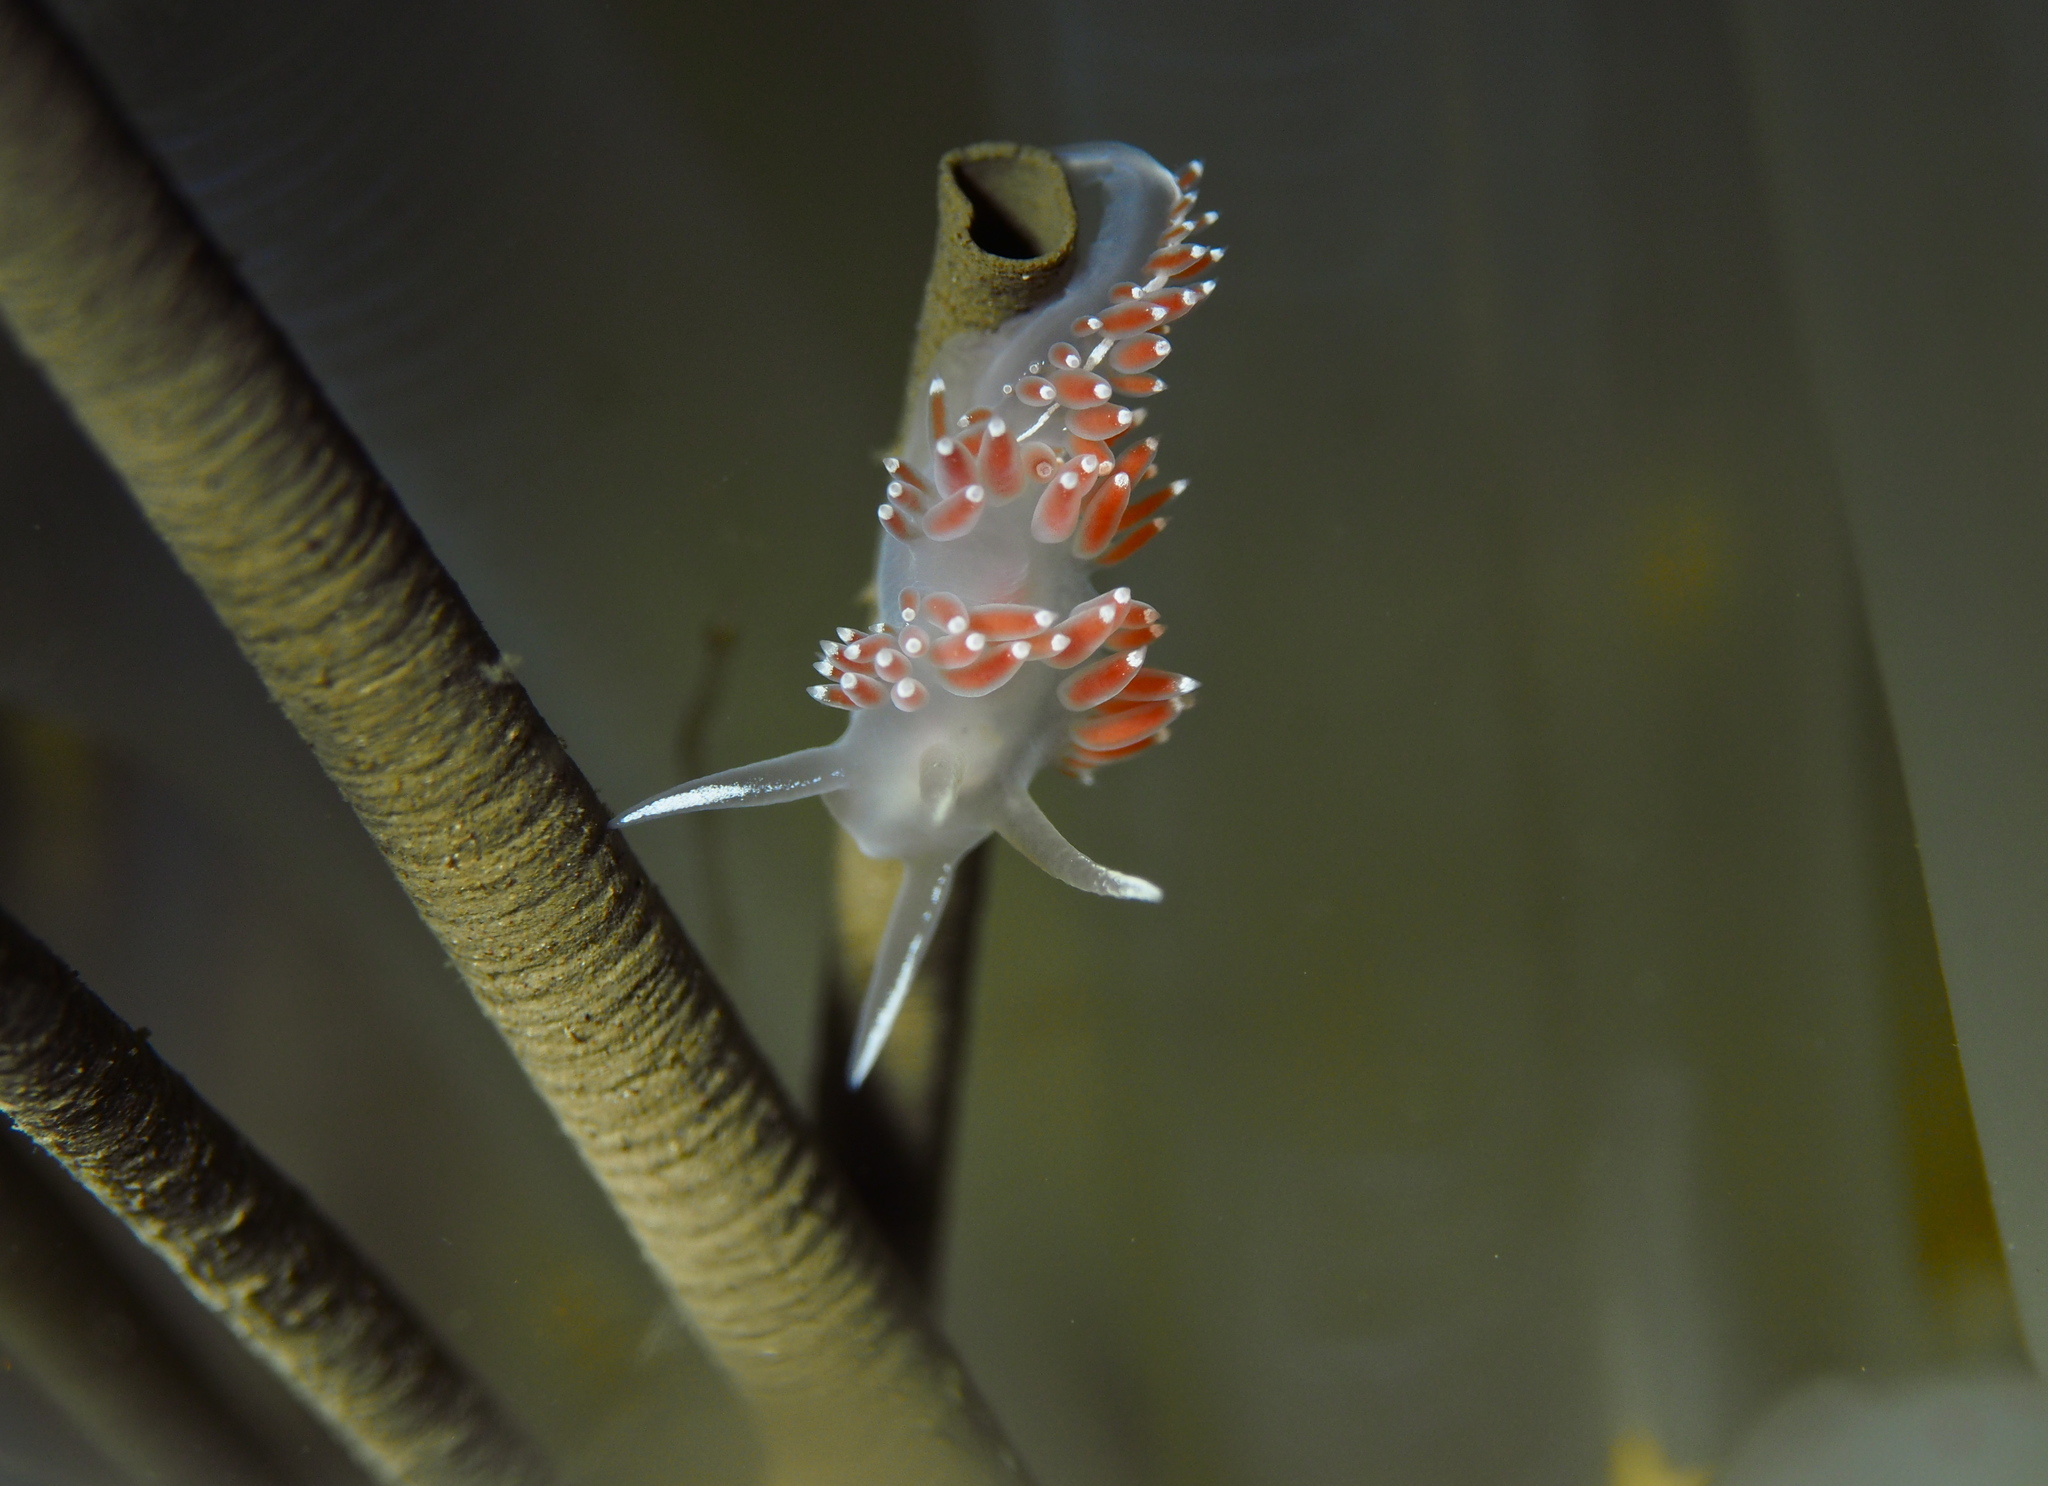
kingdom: Animalia
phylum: Mollusca
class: Gastropoda
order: Nudibranchia
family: Coryphellidae
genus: Coryphella
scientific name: Coryphella verrucosa
